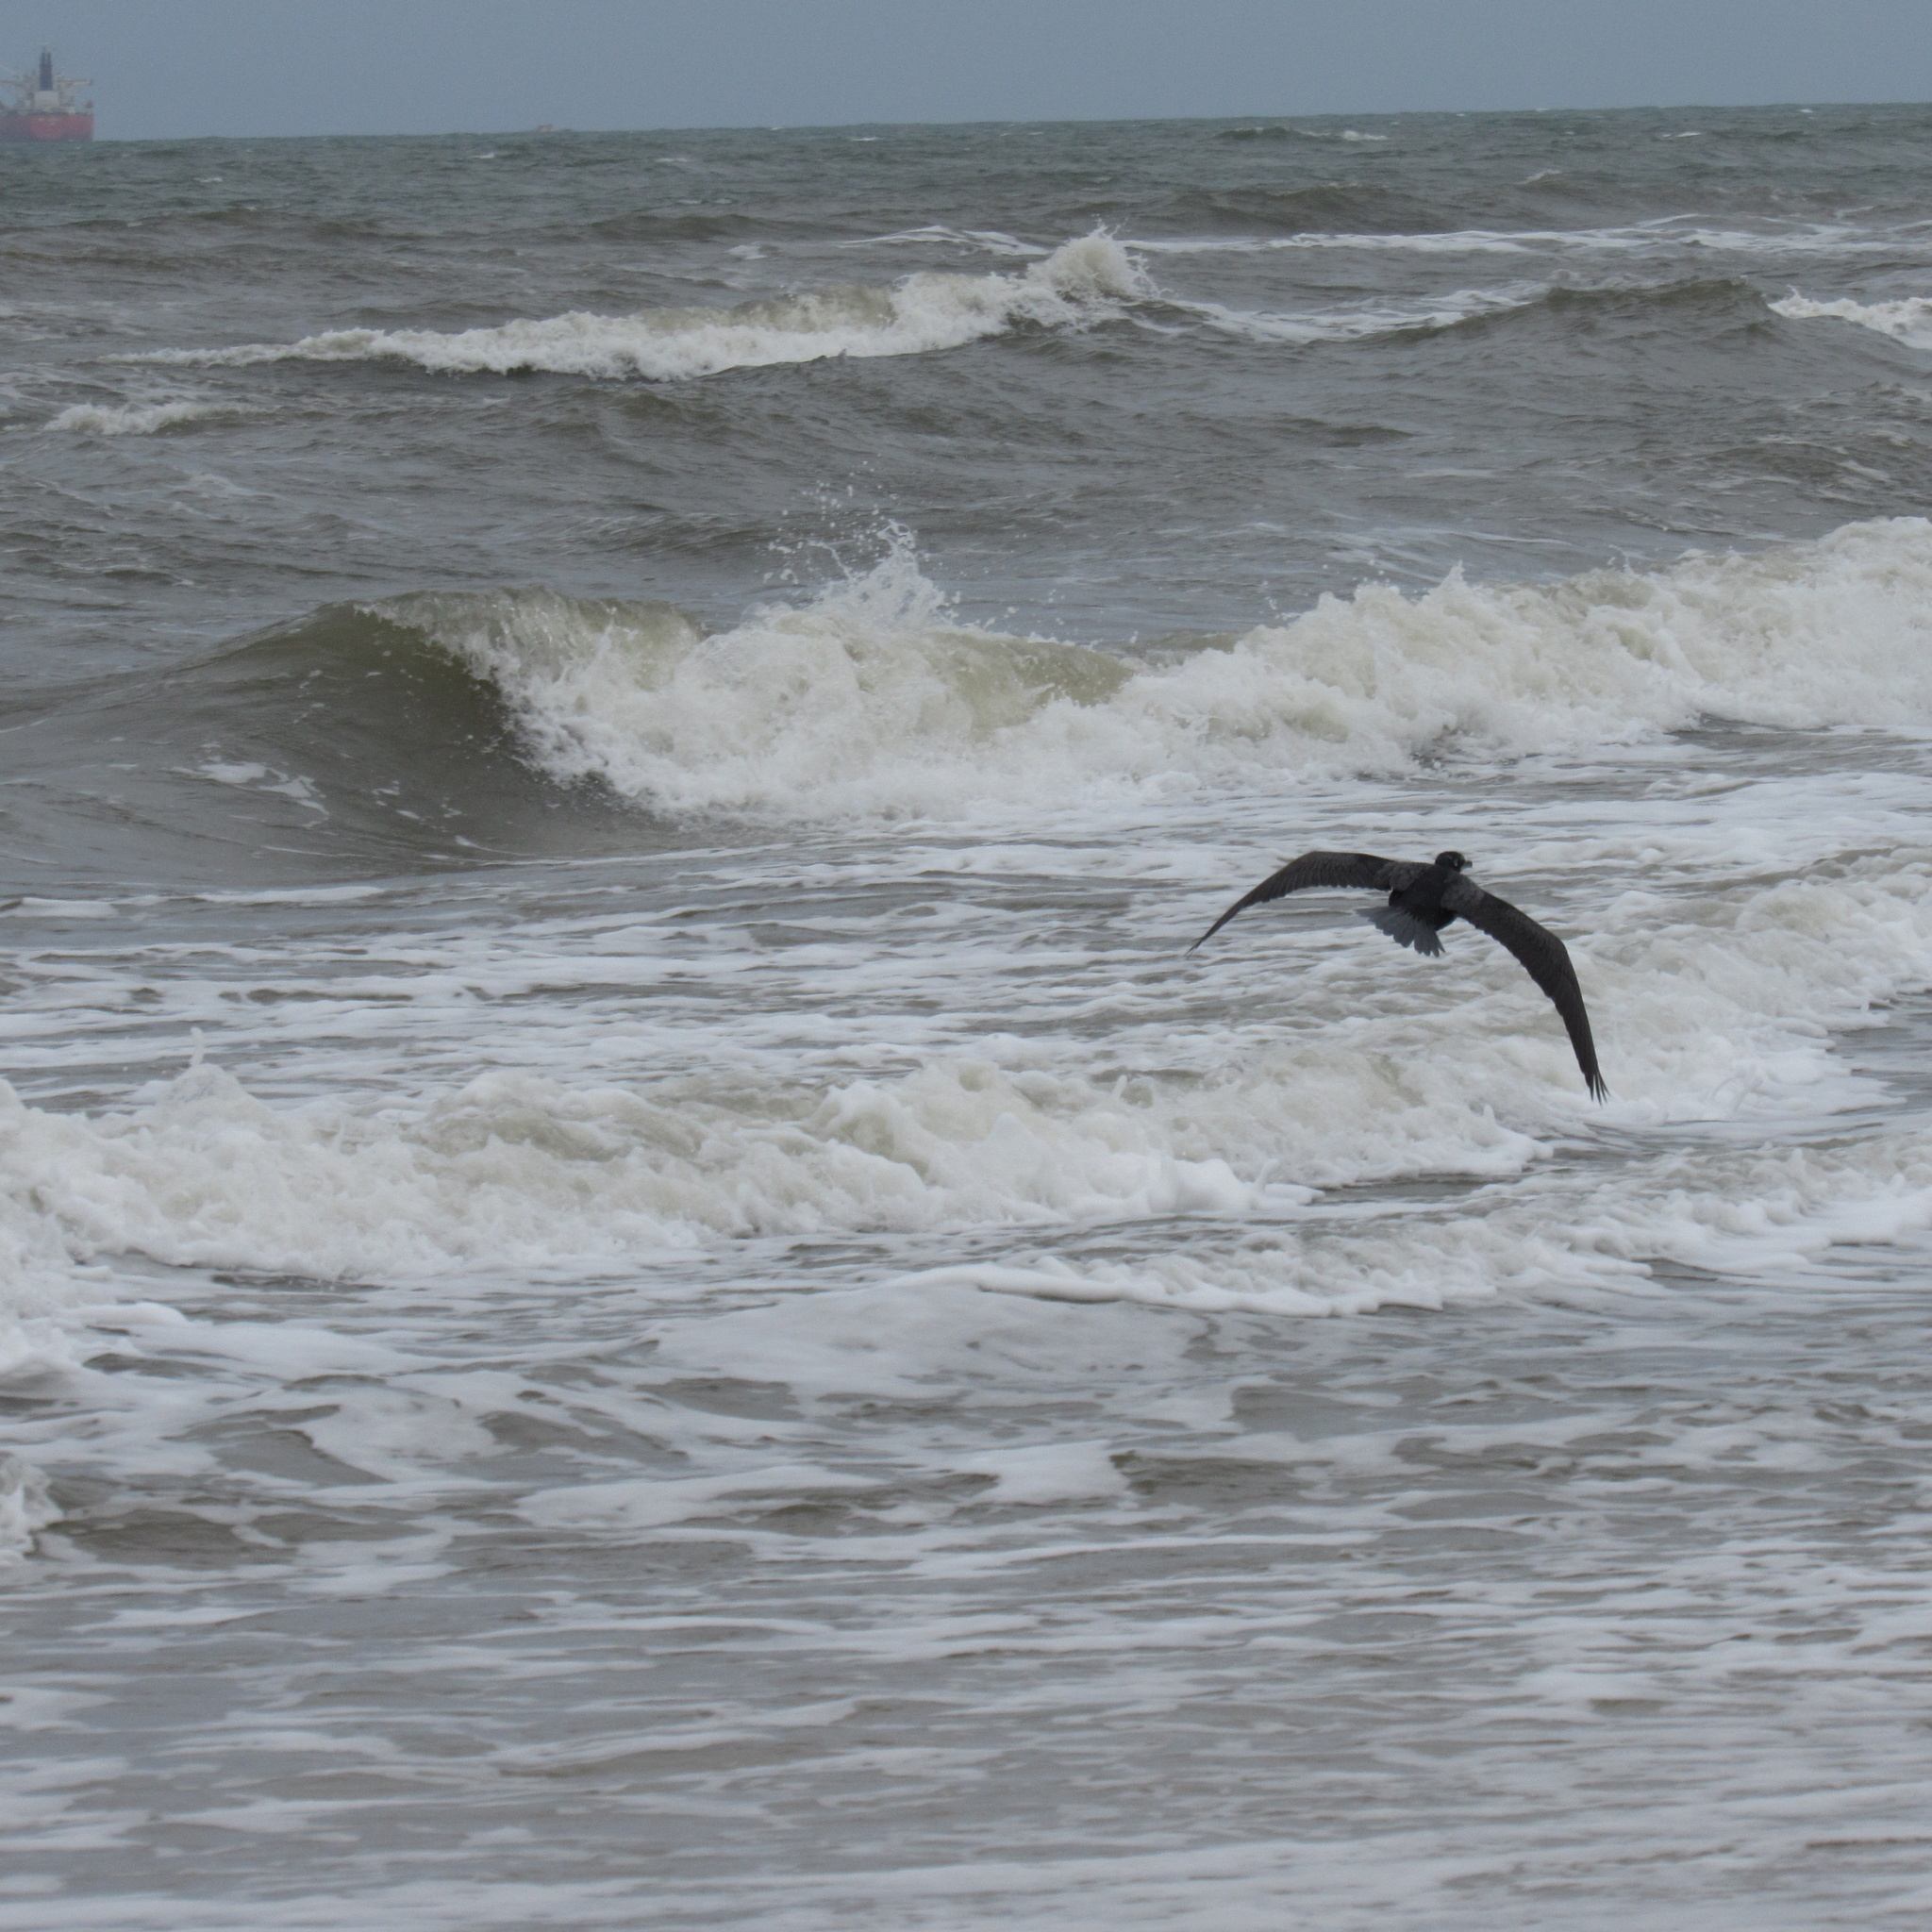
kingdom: Animalia
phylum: Chordata
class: Aves
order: Suliformes
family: Phalacrocoracidae
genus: Phalacrocorax
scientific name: Phalacrocorax brasilianus
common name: Neotropic cormorant
